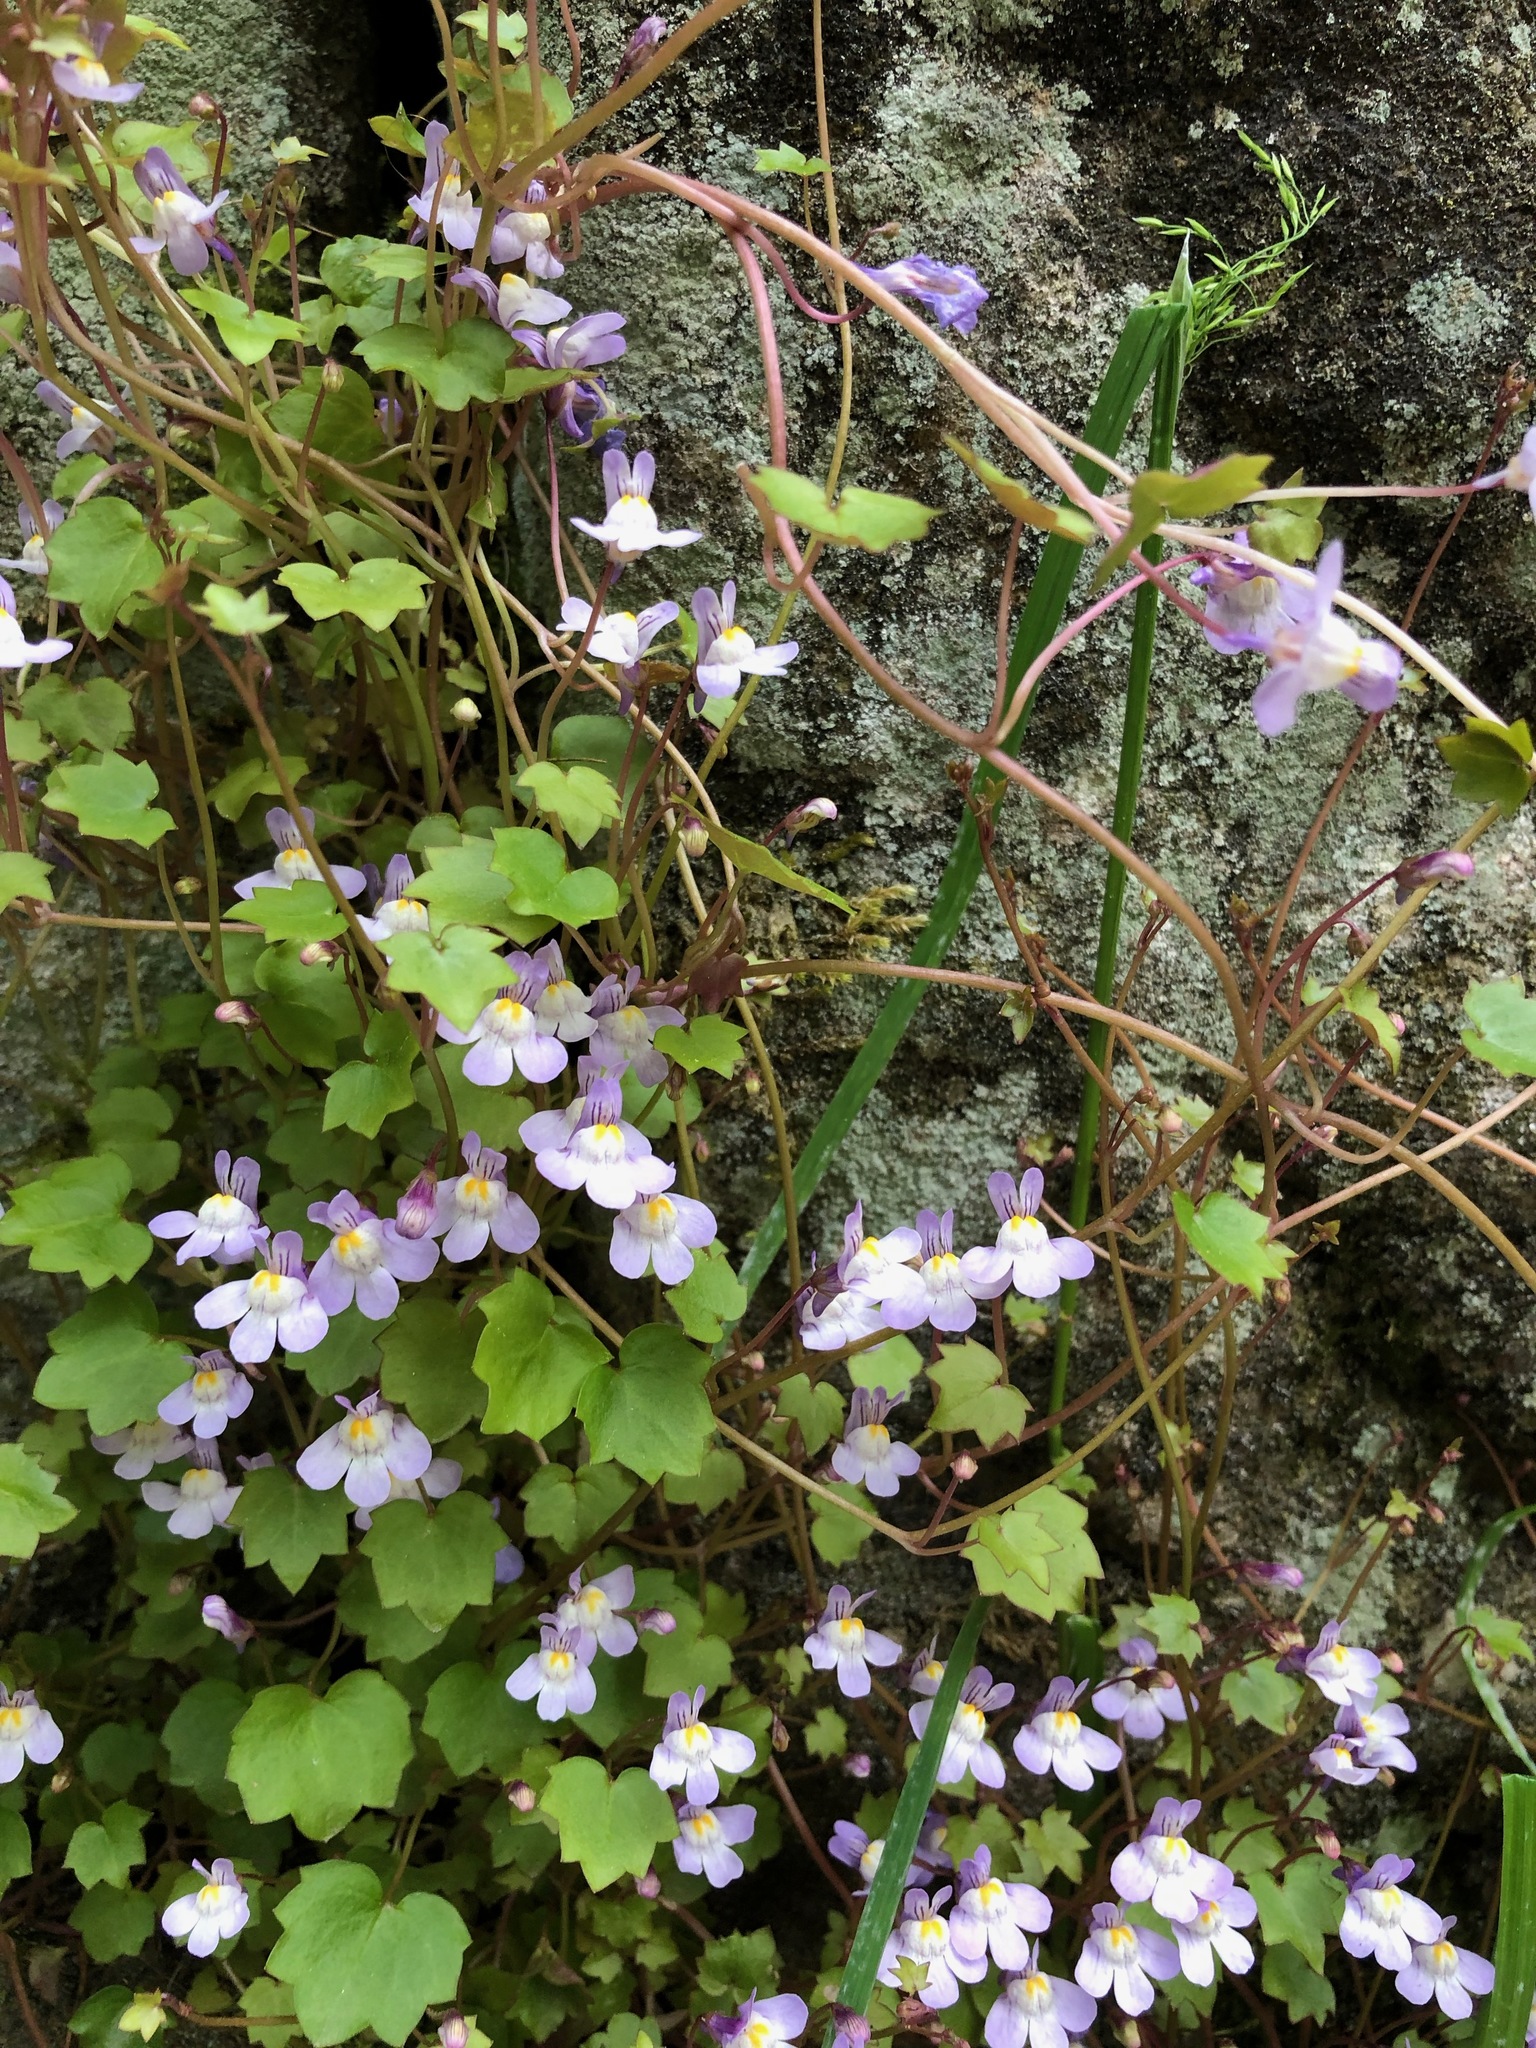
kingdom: Plantae
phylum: Tracheophyta
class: Magnoliopsida
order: Lamiales
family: Plantaginaceae
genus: Cymbalaria
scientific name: Cymbalaria muralis
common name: Ivy-leaved toadflax
